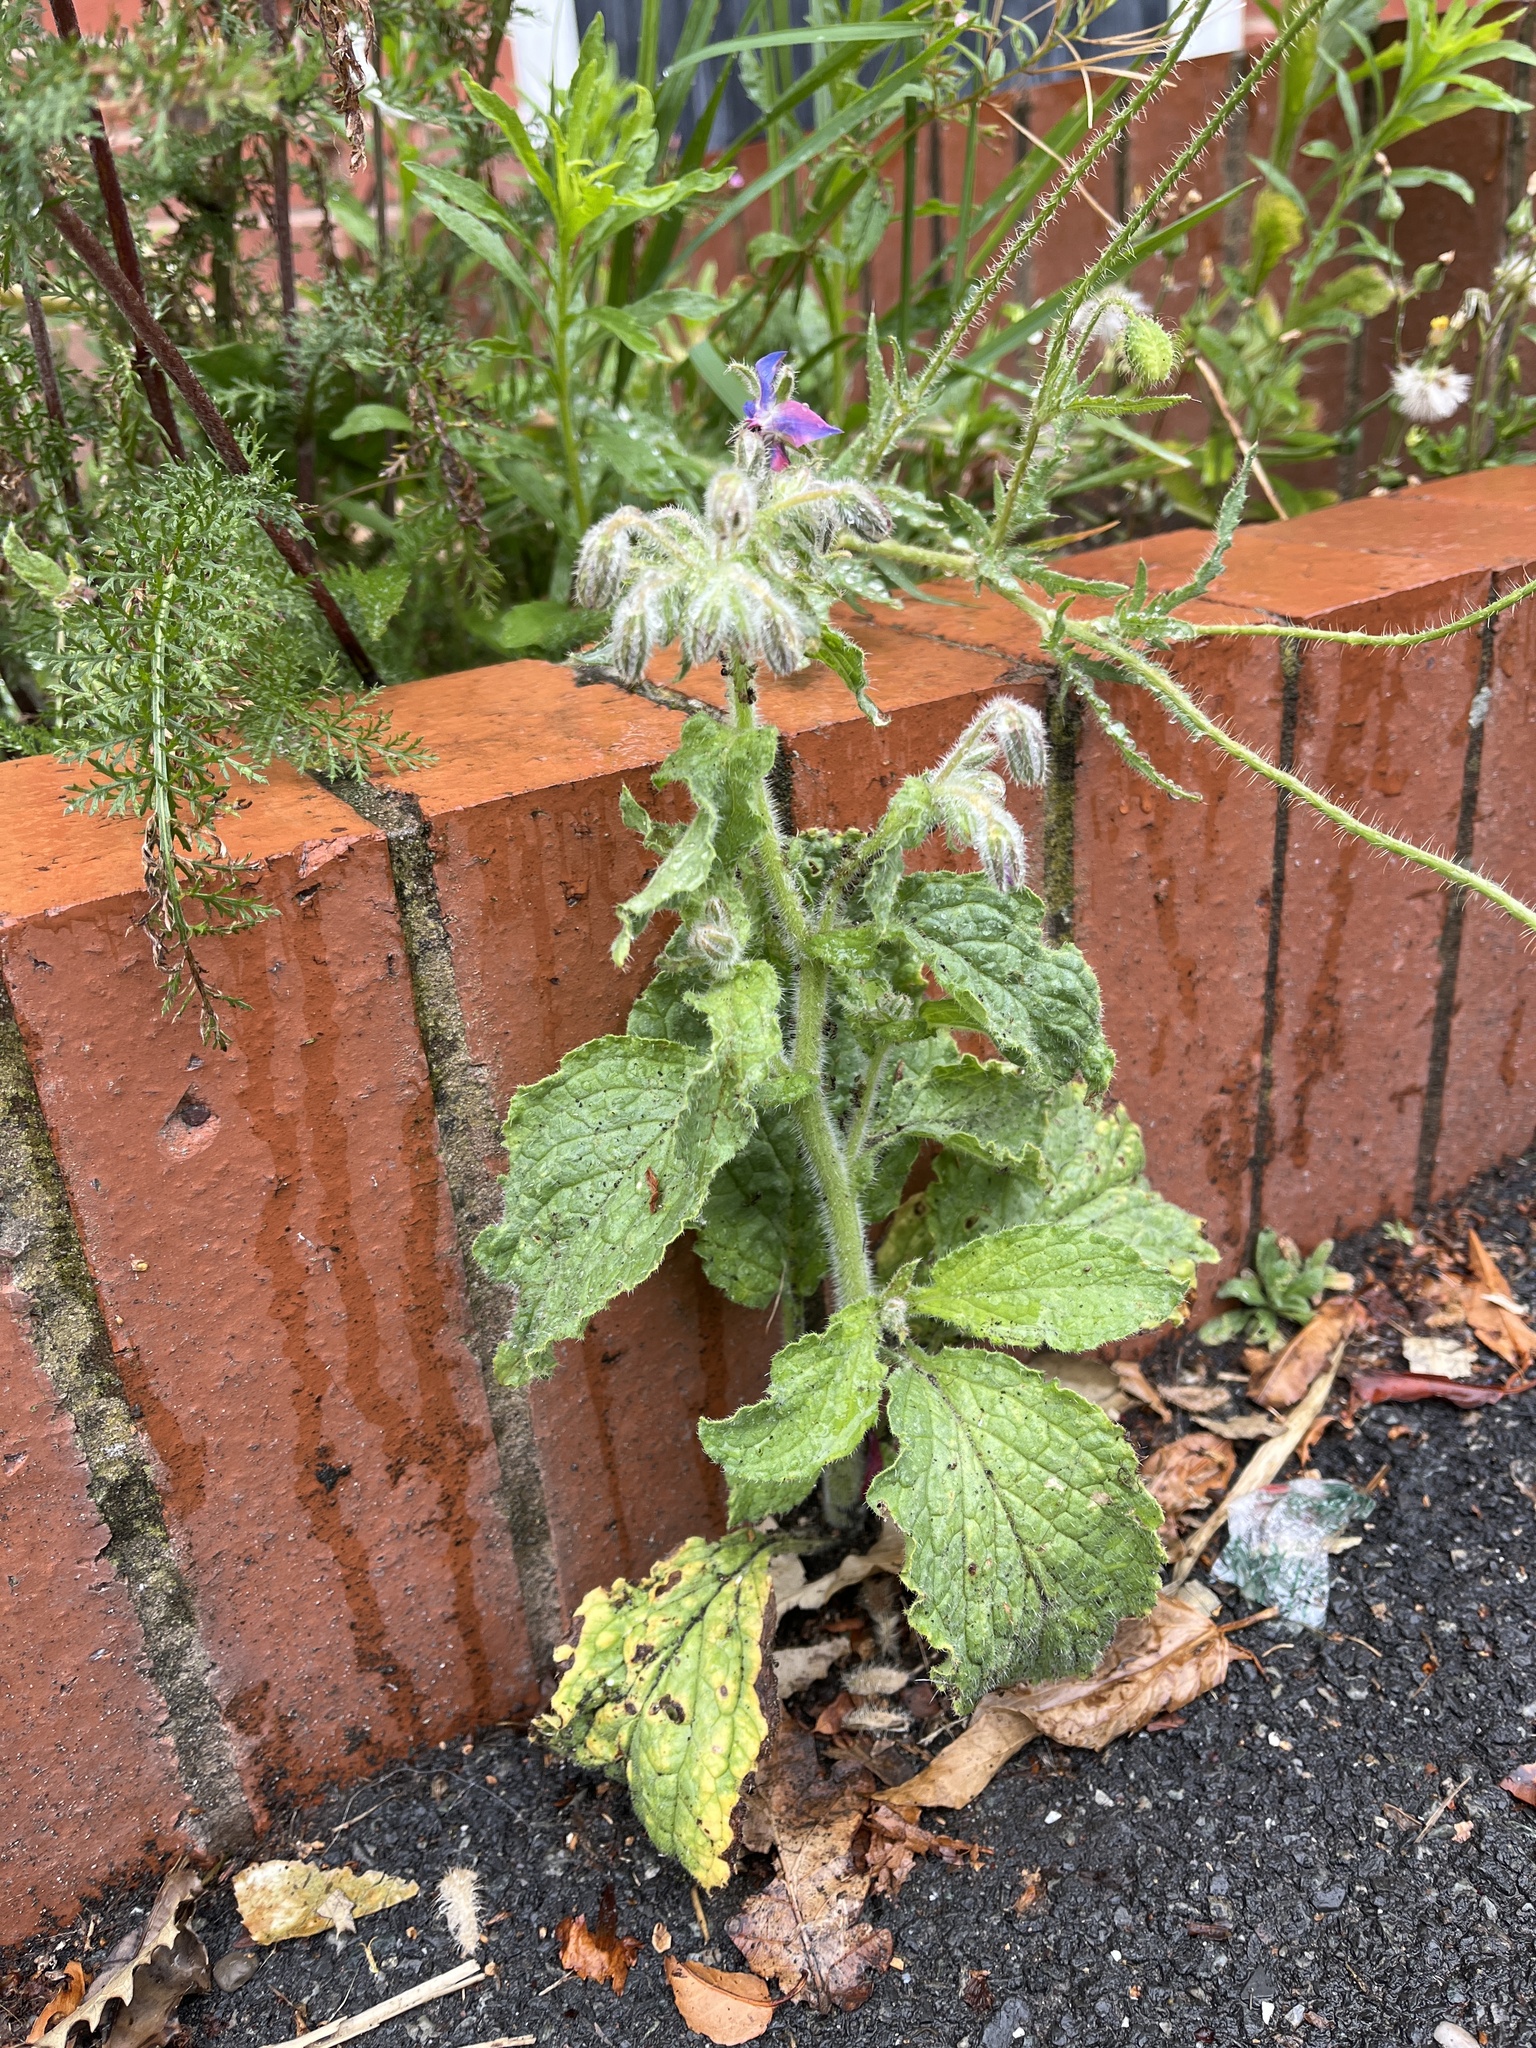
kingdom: Plantae
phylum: Tracheophyta
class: Magnoliopsida
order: Boraginales
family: Boraginaceae
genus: Borago
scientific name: Borago officinalis
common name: Borage
